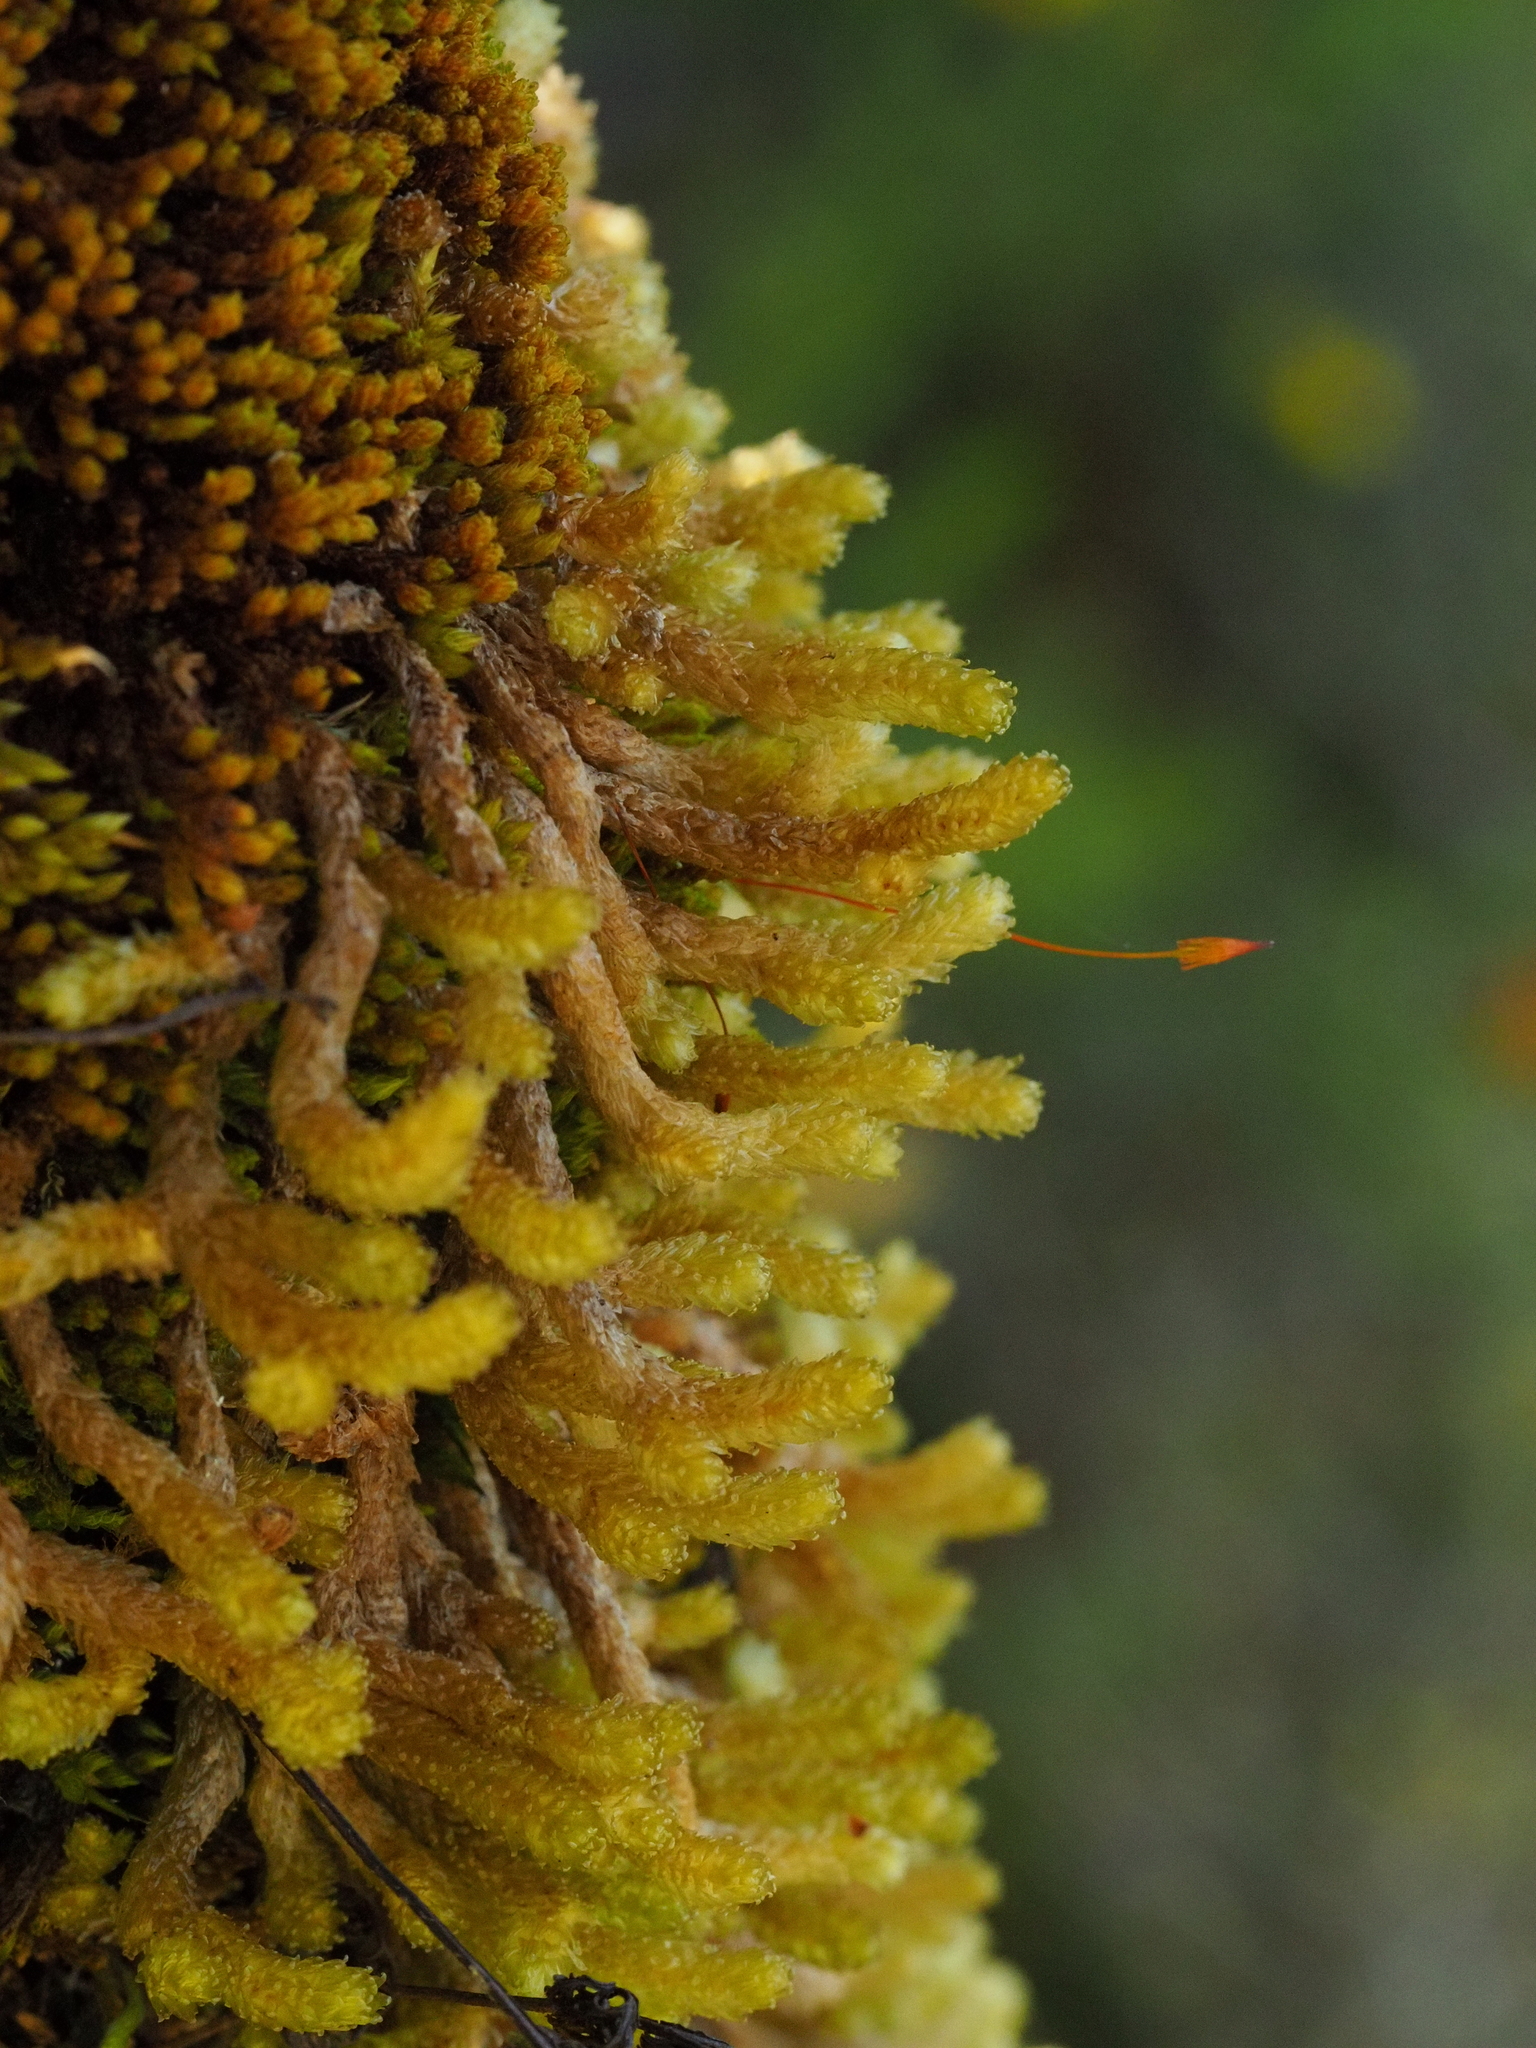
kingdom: Plantae
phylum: Bryophyta
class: Bryopsida
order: Ptychomniales
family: Ptychomniaceae
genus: Cladomnion
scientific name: Cladomnion ericoides
